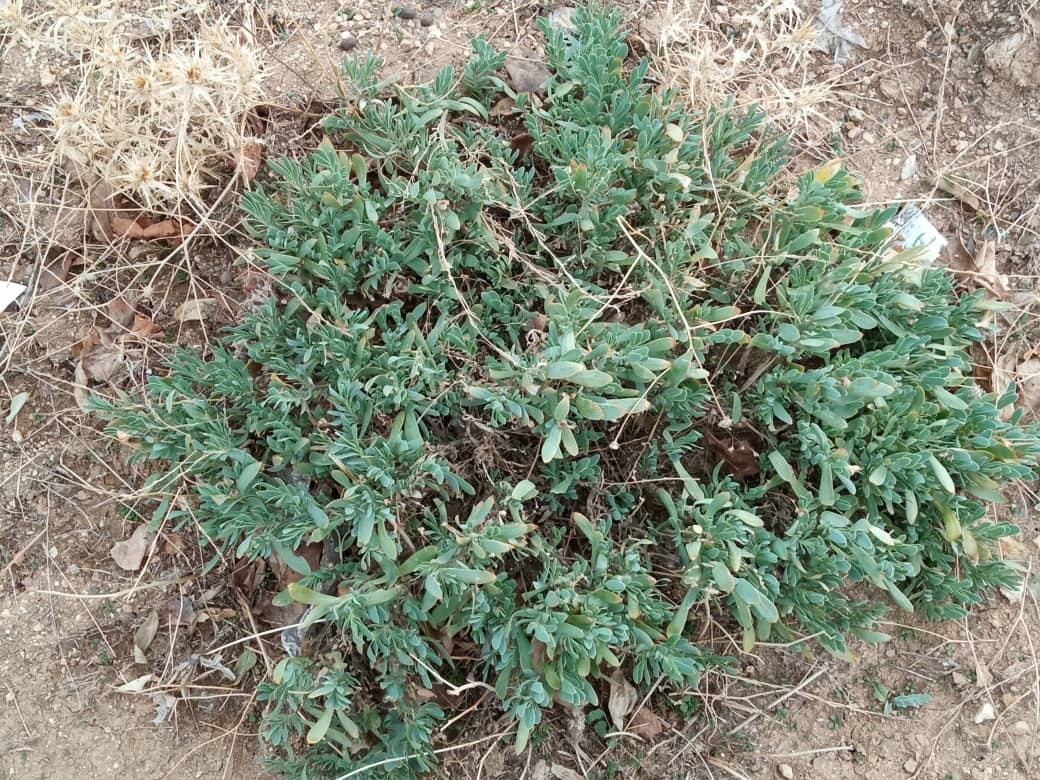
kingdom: Plantae
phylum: Tracheophyta
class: Magnoliopsida
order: Asterales
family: Asteraceae
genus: Hertia
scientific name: Hertia cheirifolia
